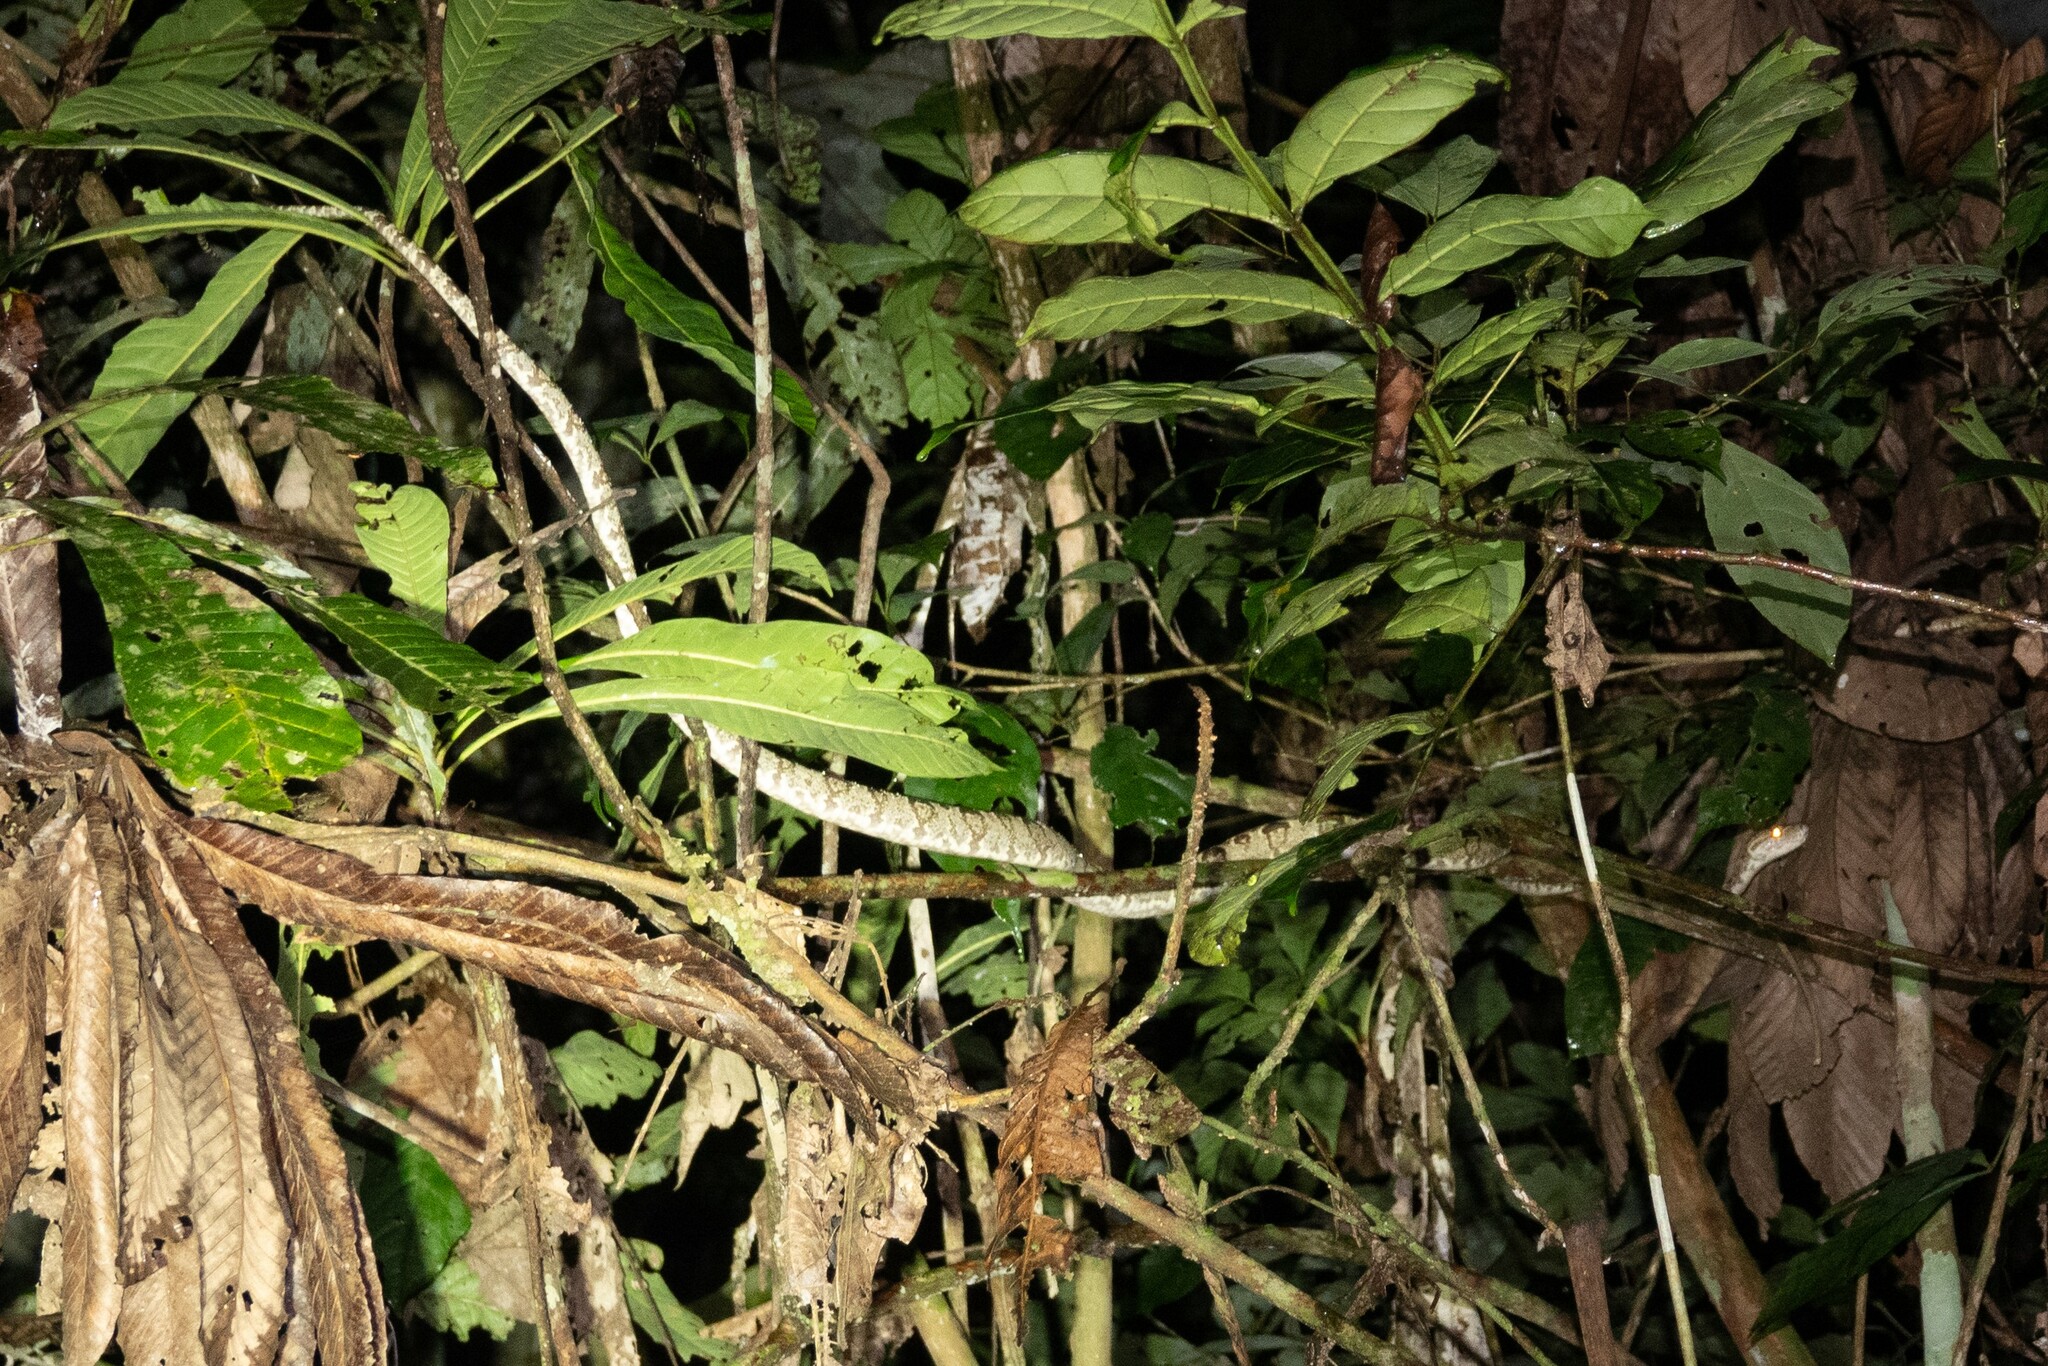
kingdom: Animalia
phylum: Chordata
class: Squamata
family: Boidae
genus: Corallus
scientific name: Corallus hortulana
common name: Garden tree boa
